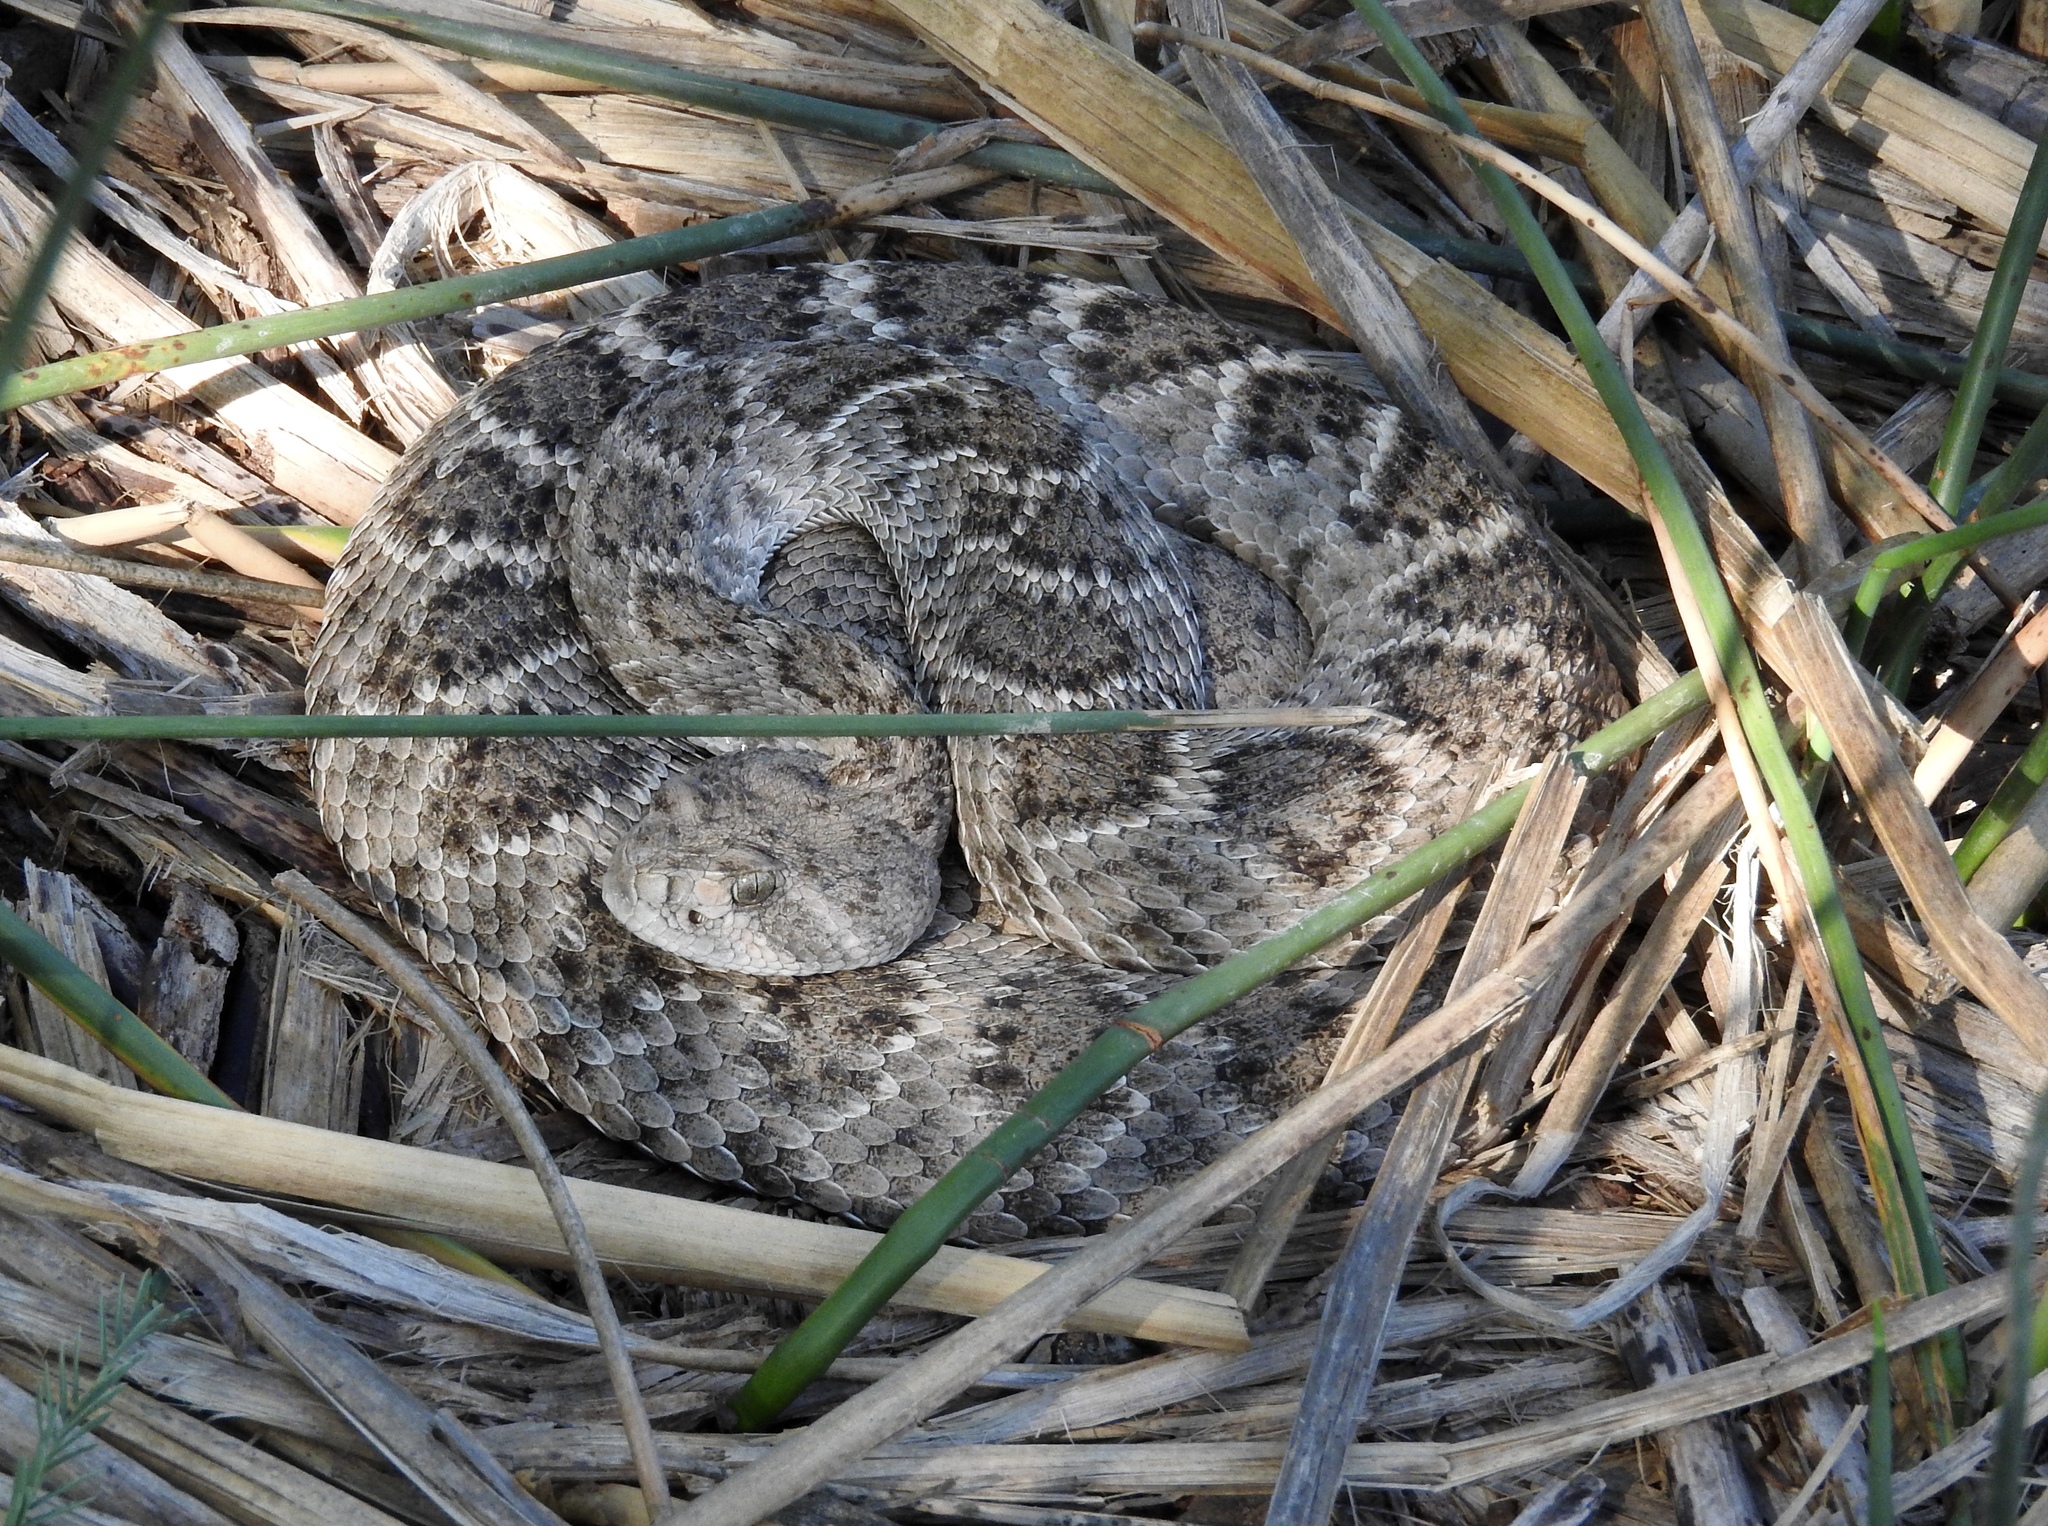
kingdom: Animalia
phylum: Chordata
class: Squamata
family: Viperidae
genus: Crotalus
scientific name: Crotalus atrox
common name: Western diamond-backed rattlesnake
